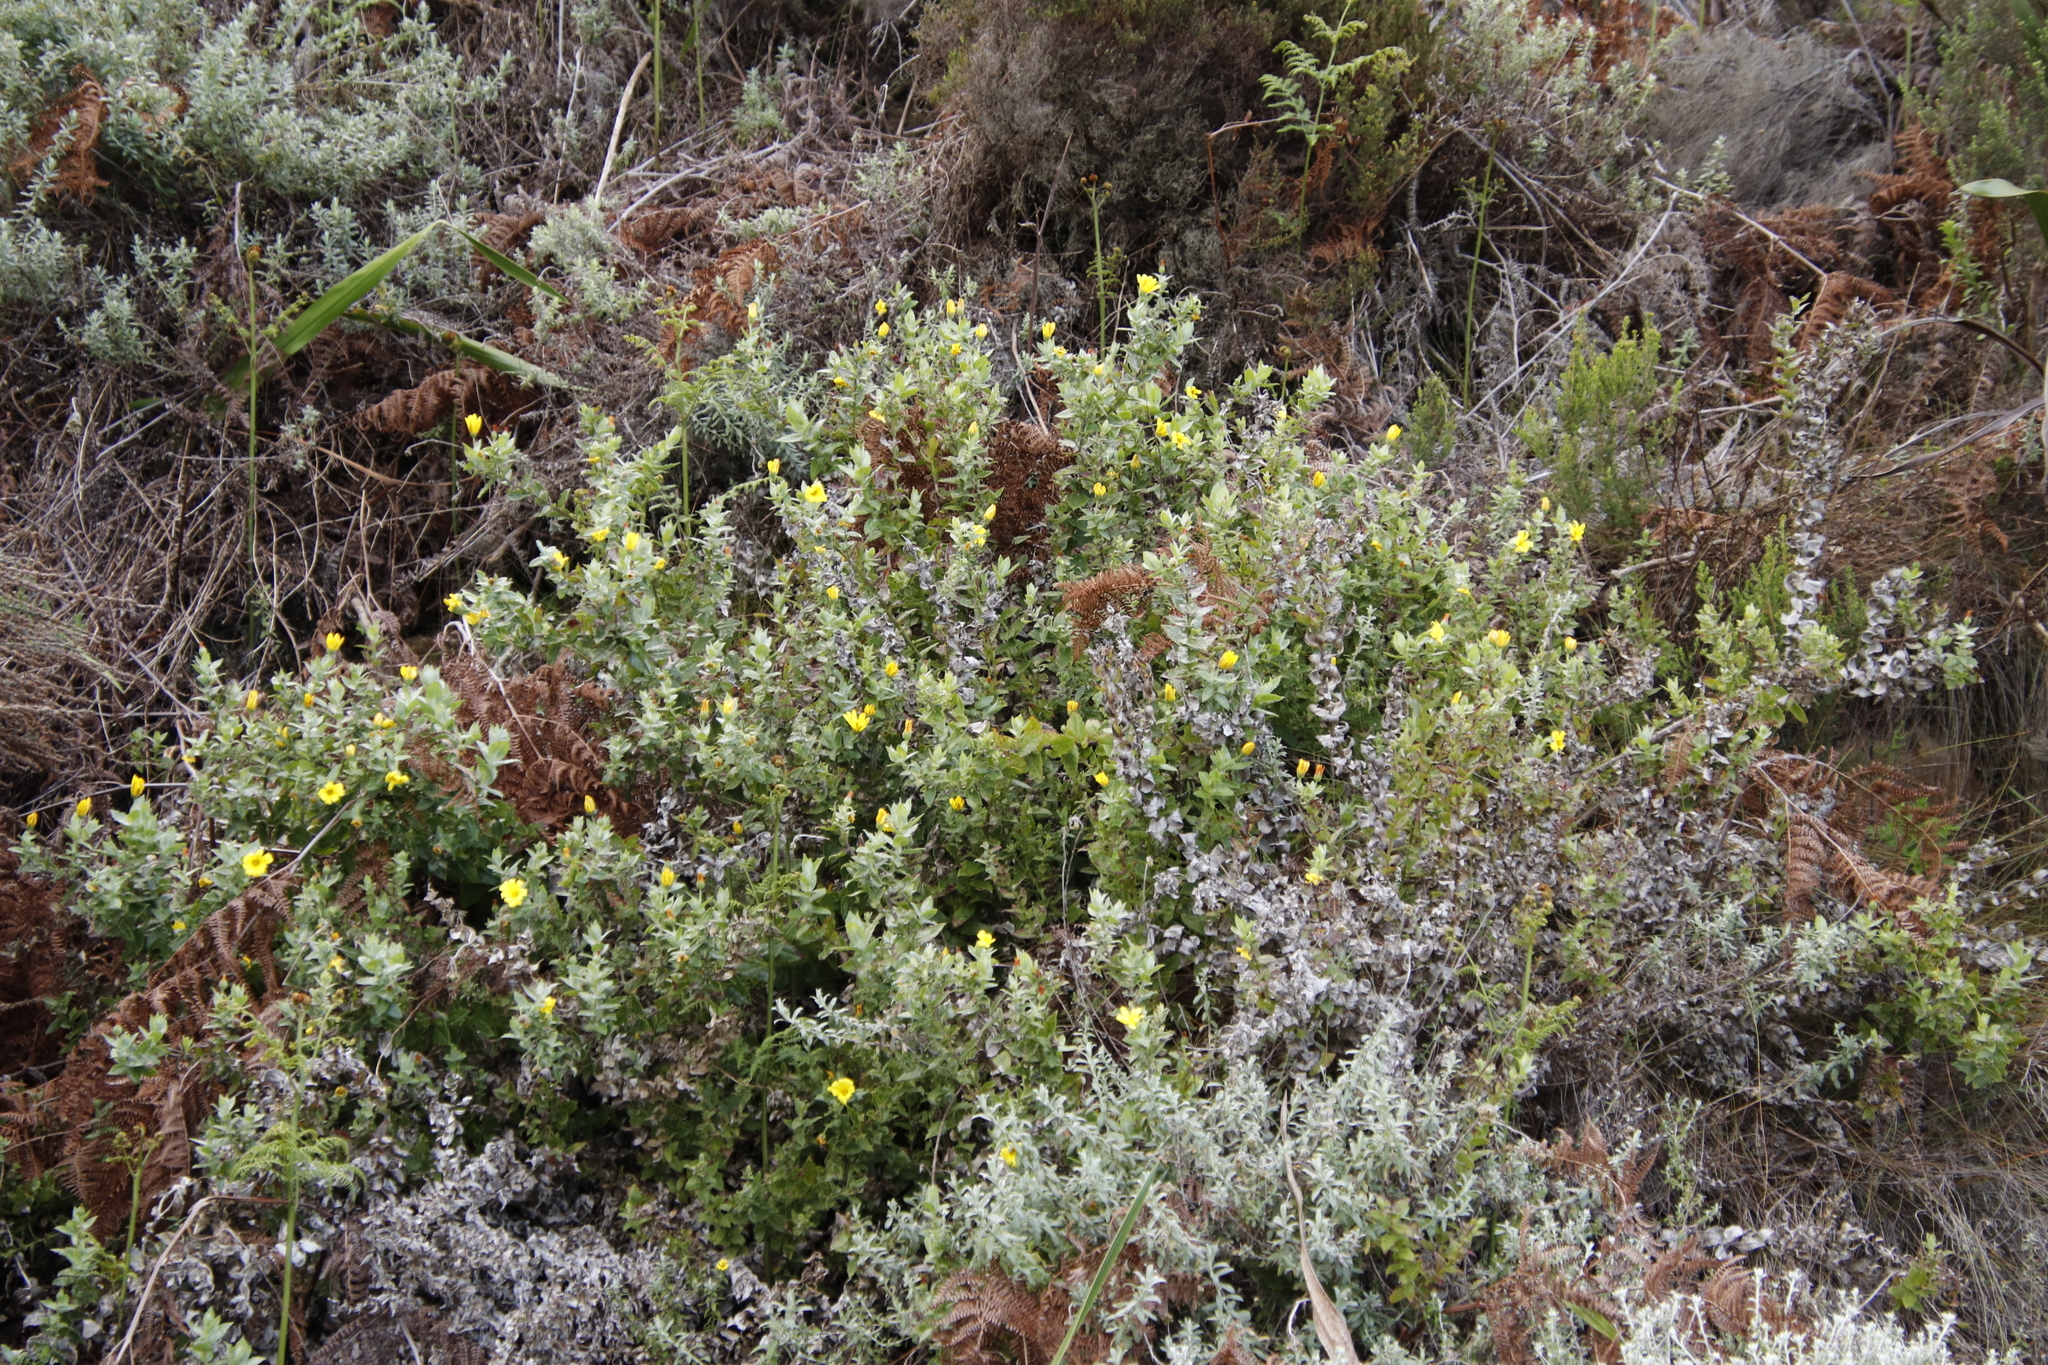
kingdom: Plantae
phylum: Tracheophyta
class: Magnoliopsida
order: Asterales
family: Asteraceae
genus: Osteospermum
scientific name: Osteospermum ilicifolium
